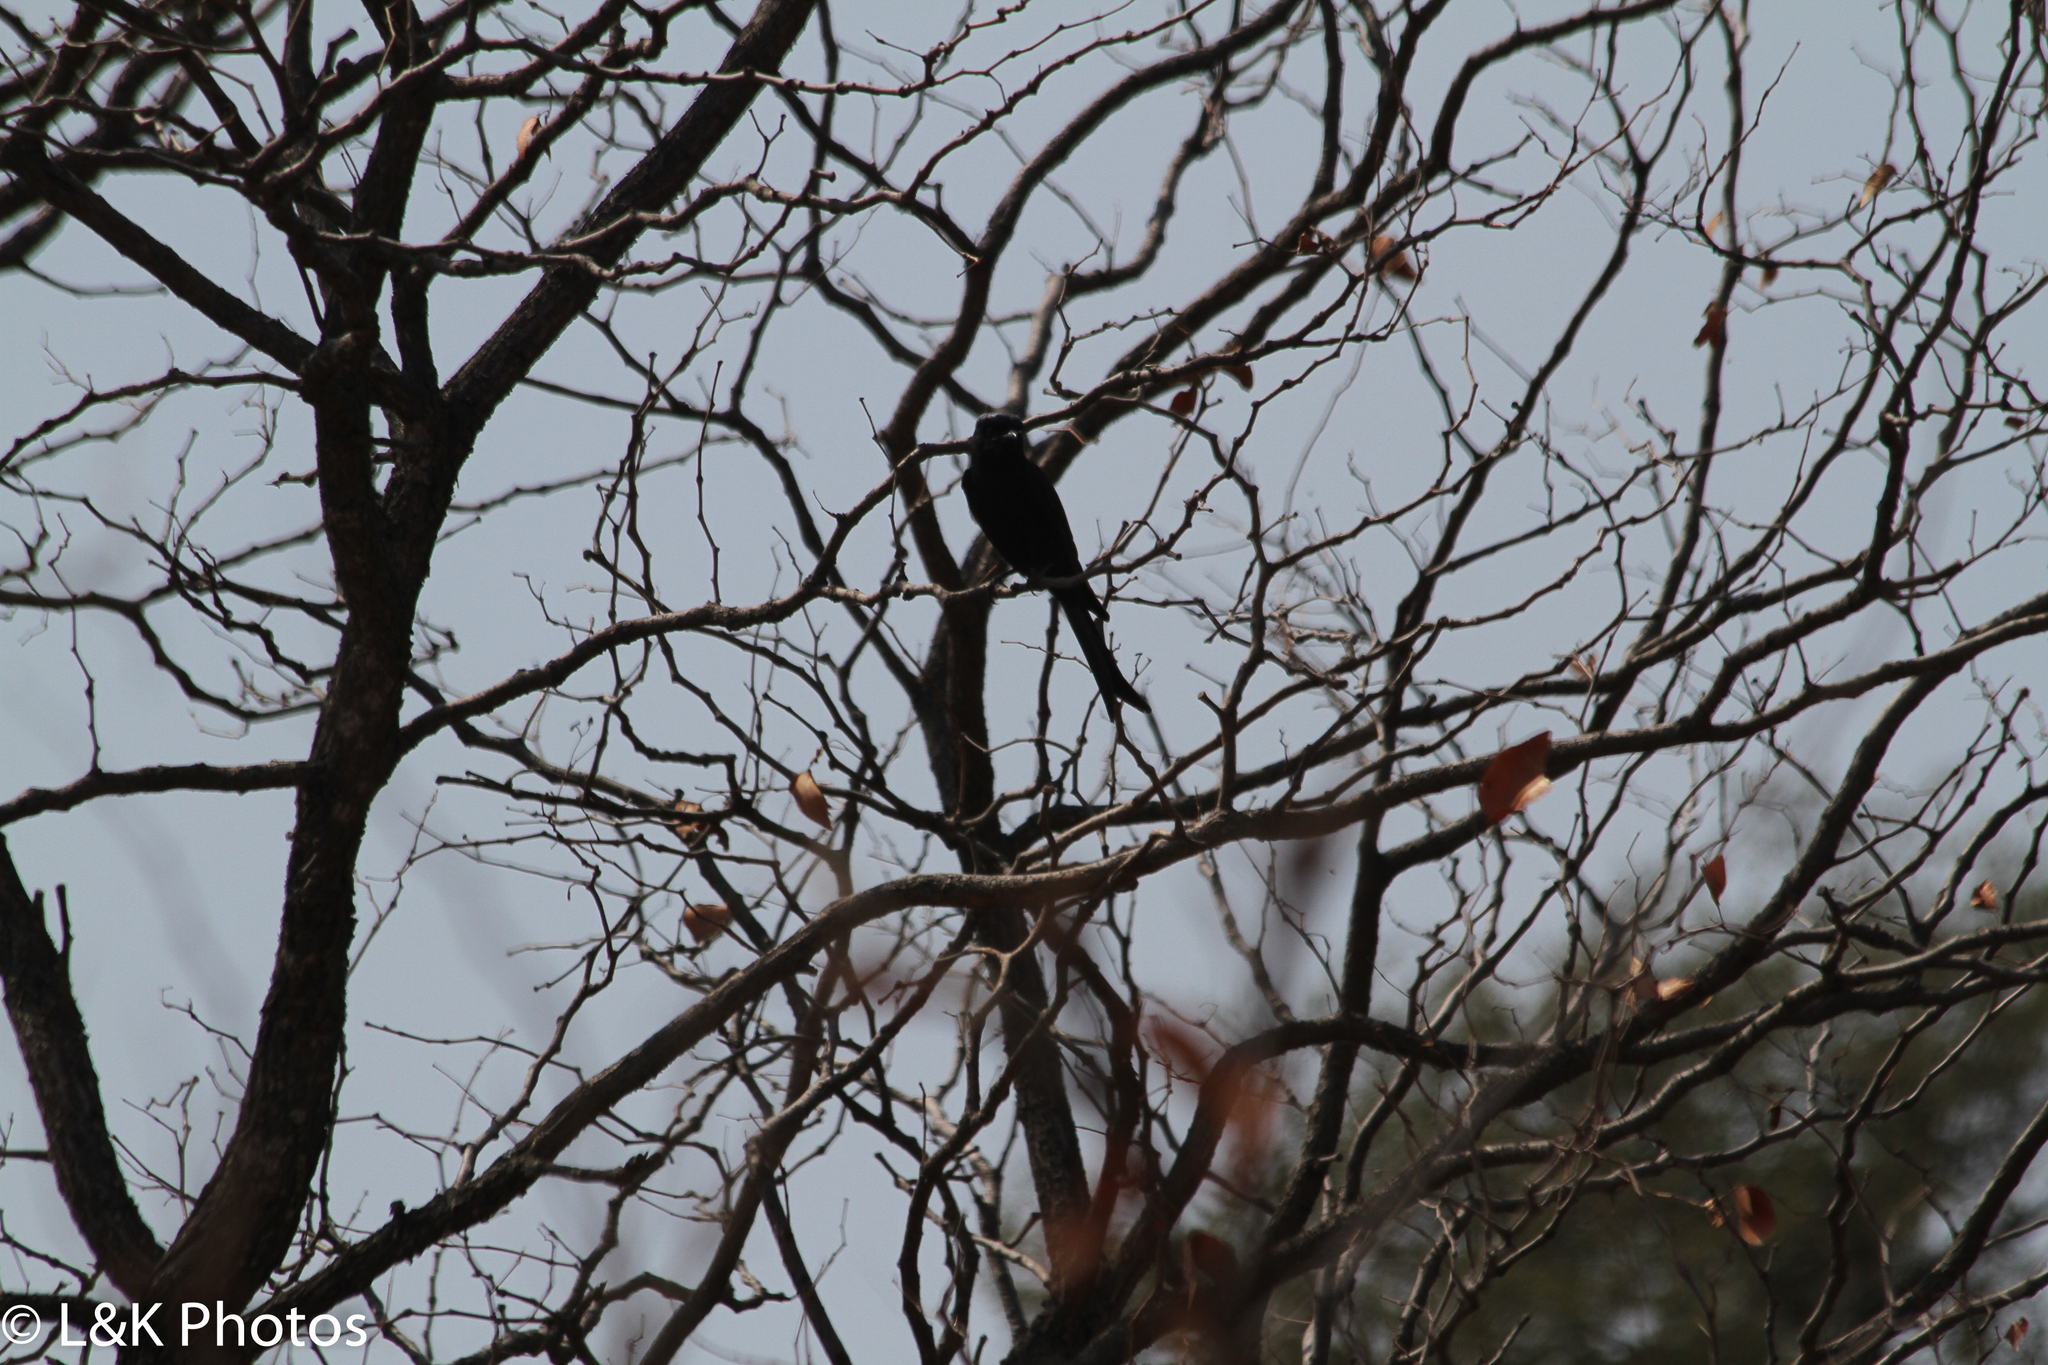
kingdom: Animalia
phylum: Chordata
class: Aves
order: Passeriformes
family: Dicruridae
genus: Dicrurus
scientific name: Dicrurus adsimilis
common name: Fork-tailed drongo
